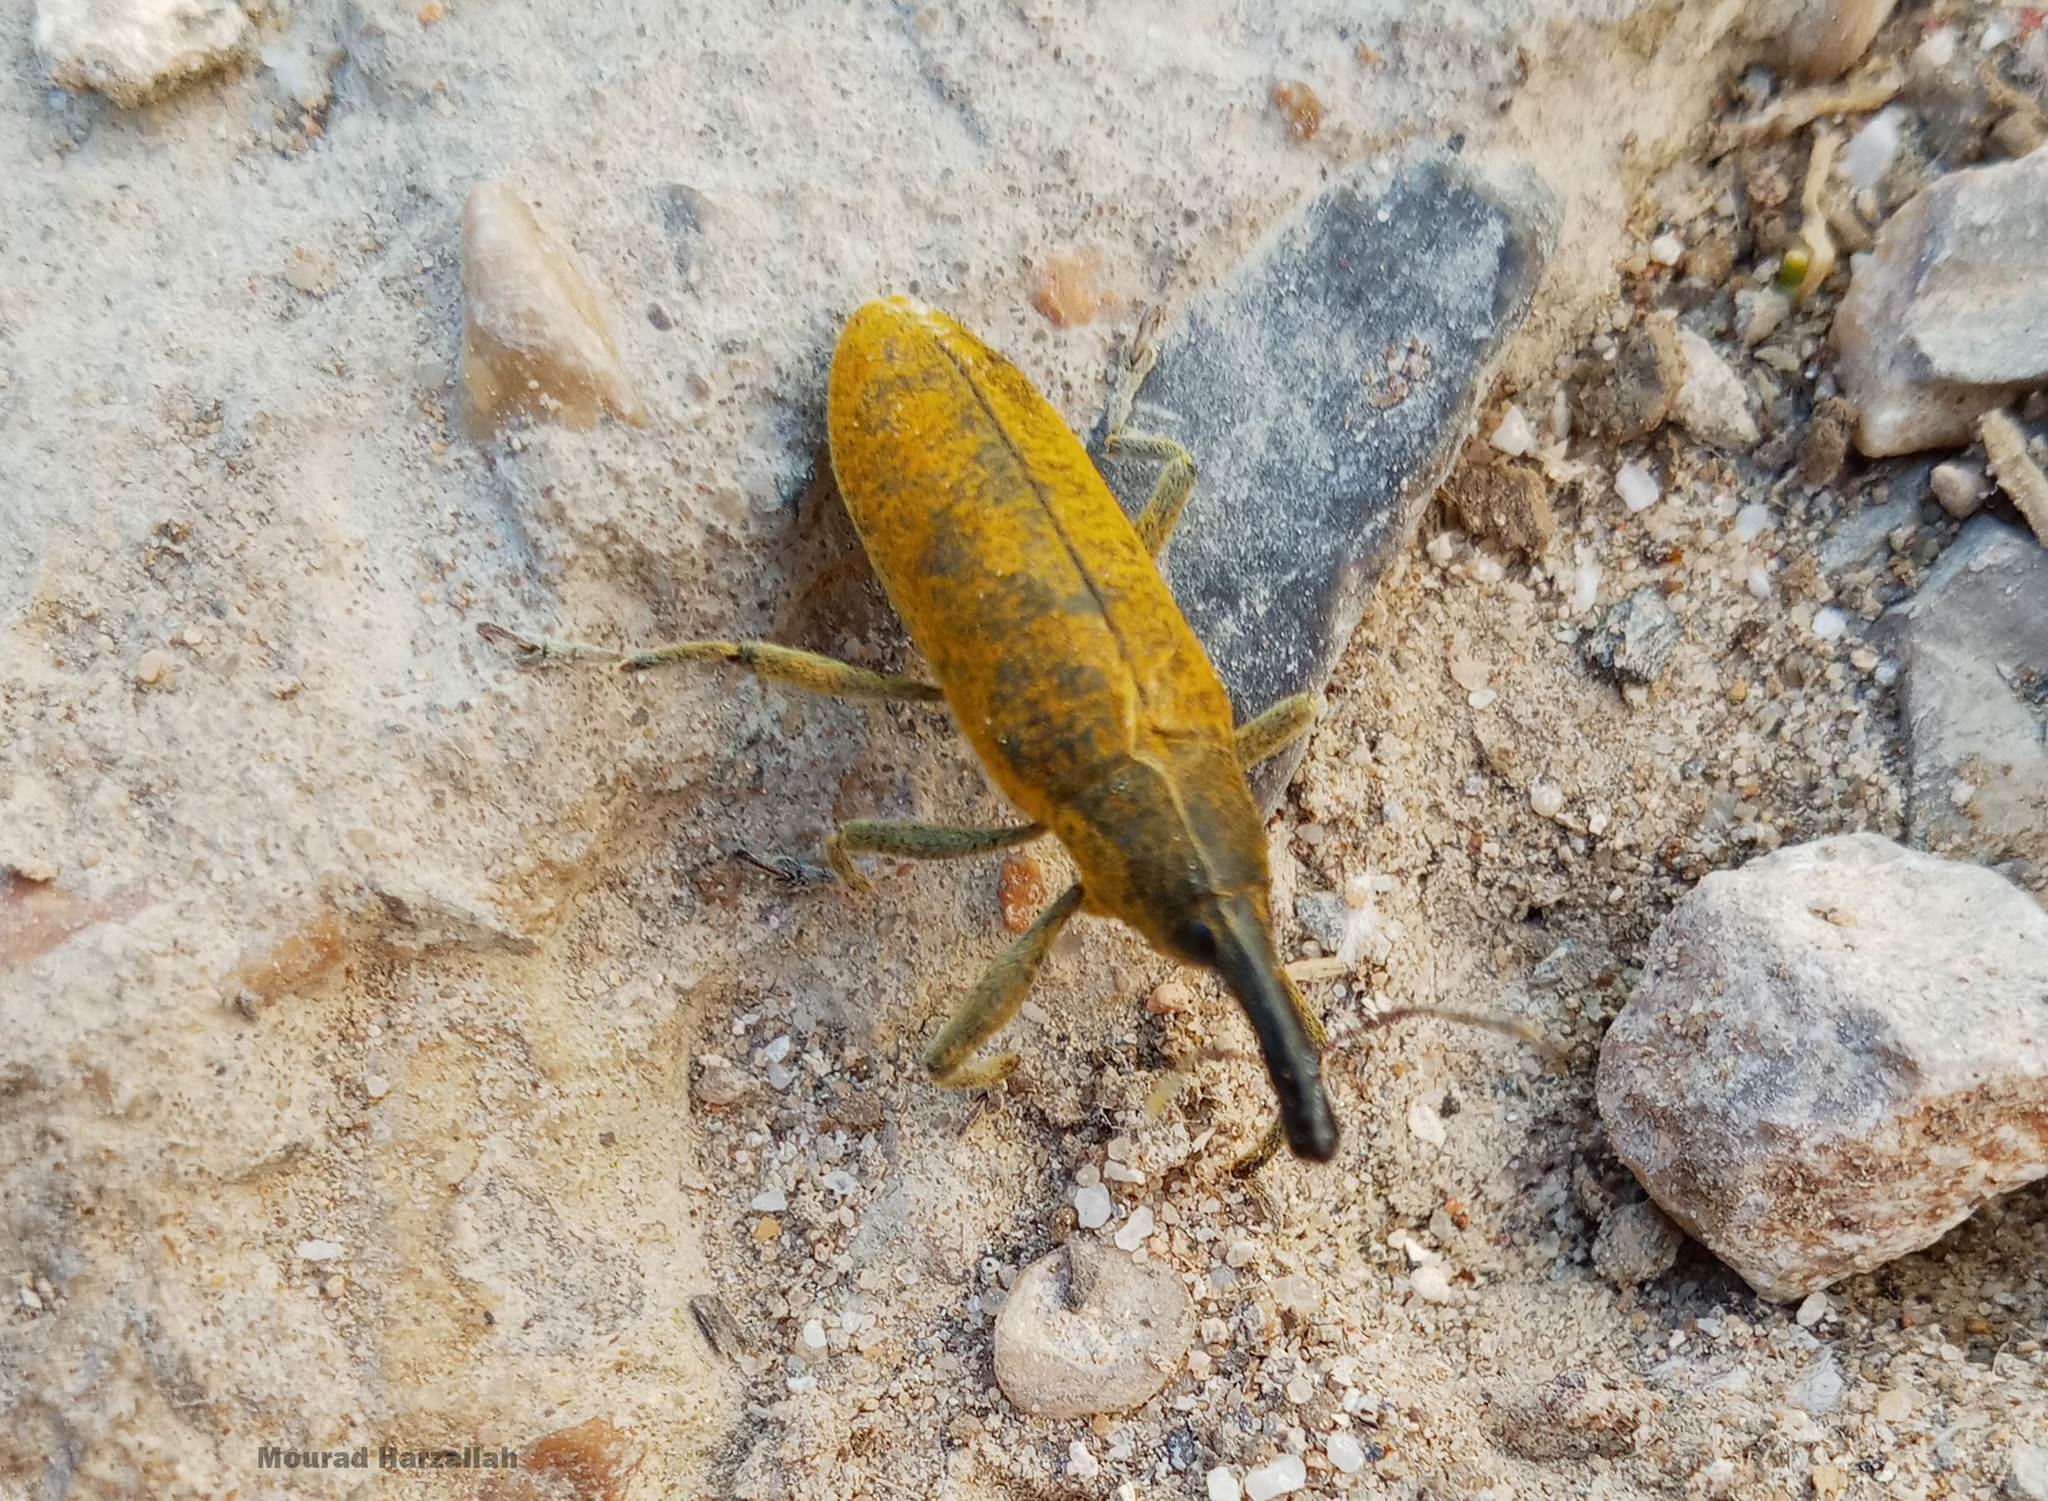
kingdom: Animalia
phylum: Arthropoda
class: Insecta
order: Coleoptera
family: Curculionidae
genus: Lixus
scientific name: Lixus pulverulentus
